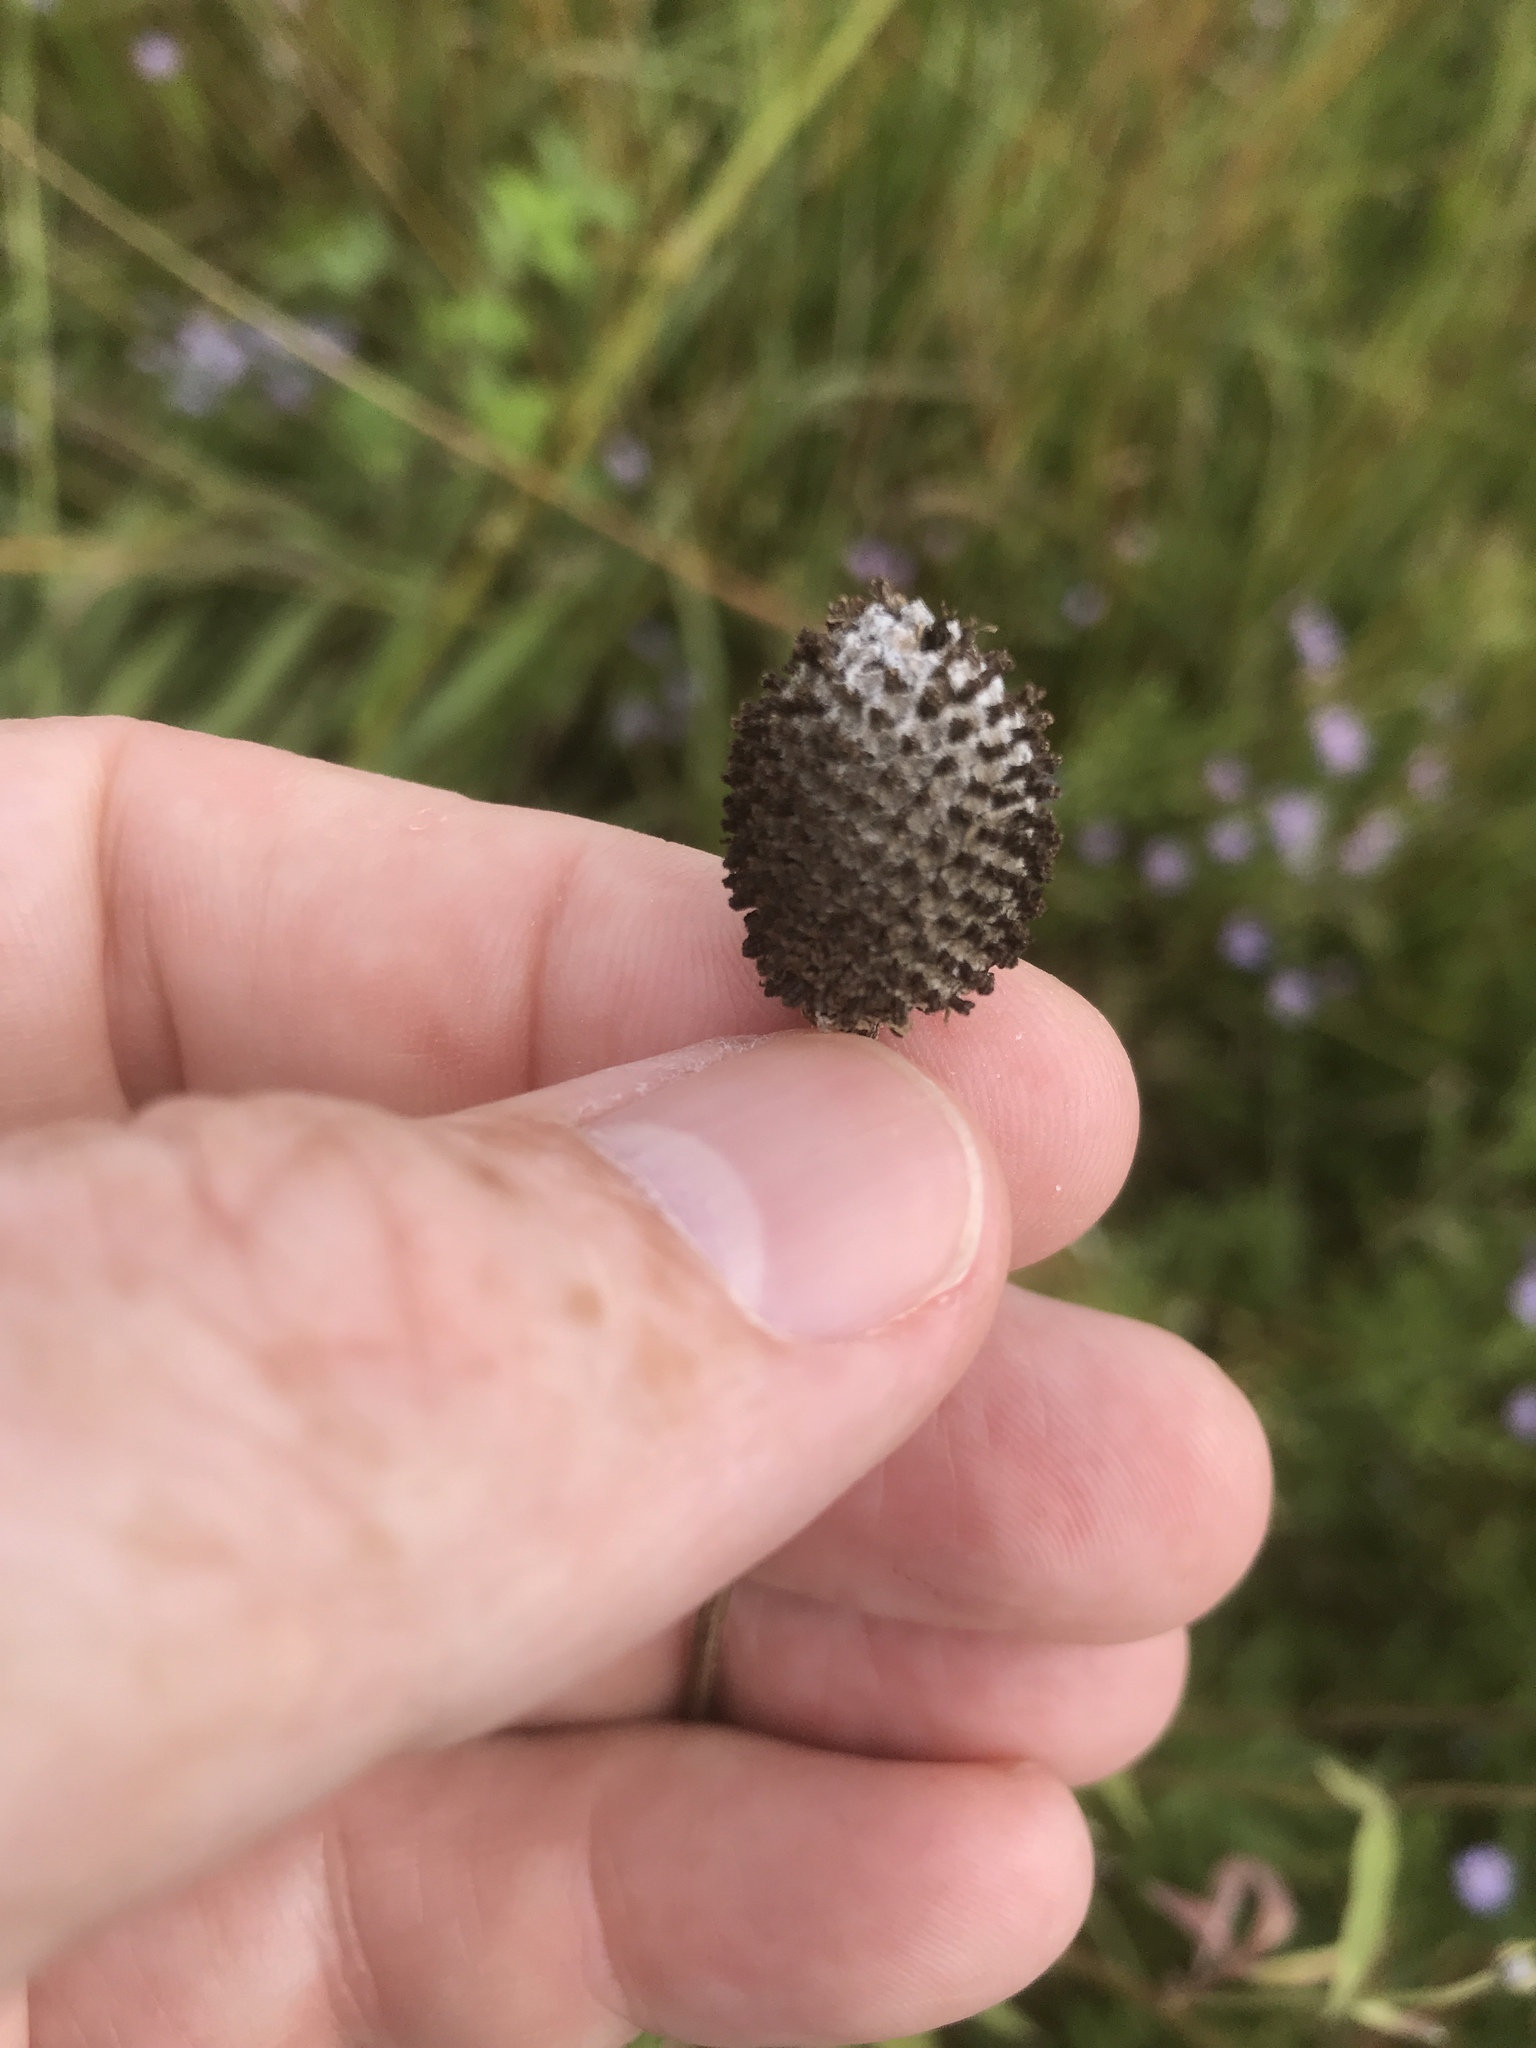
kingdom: Plantae
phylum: Tracheophyta
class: Magnoliopsida
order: Asterales
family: Asteraceae
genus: Ratibida
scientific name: Ratibida pinnata
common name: Drooping prairie-coneflower
